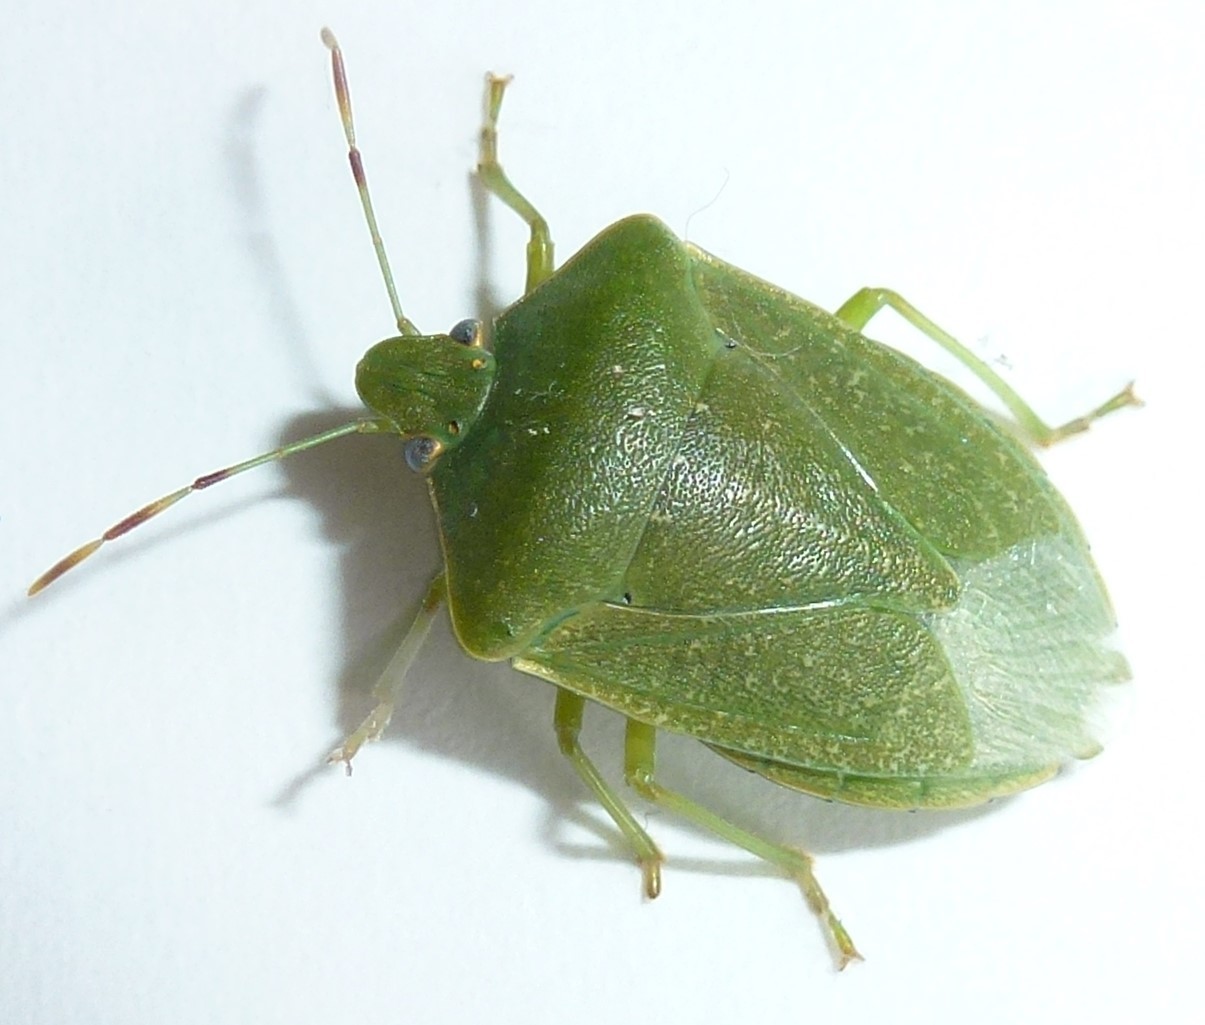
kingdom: Animalia
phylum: Arthropoda
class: Insecta
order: Hemiptera
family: Pentatomidae
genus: Nezara
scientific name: Nezara viridula
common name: Southern green stink bug
